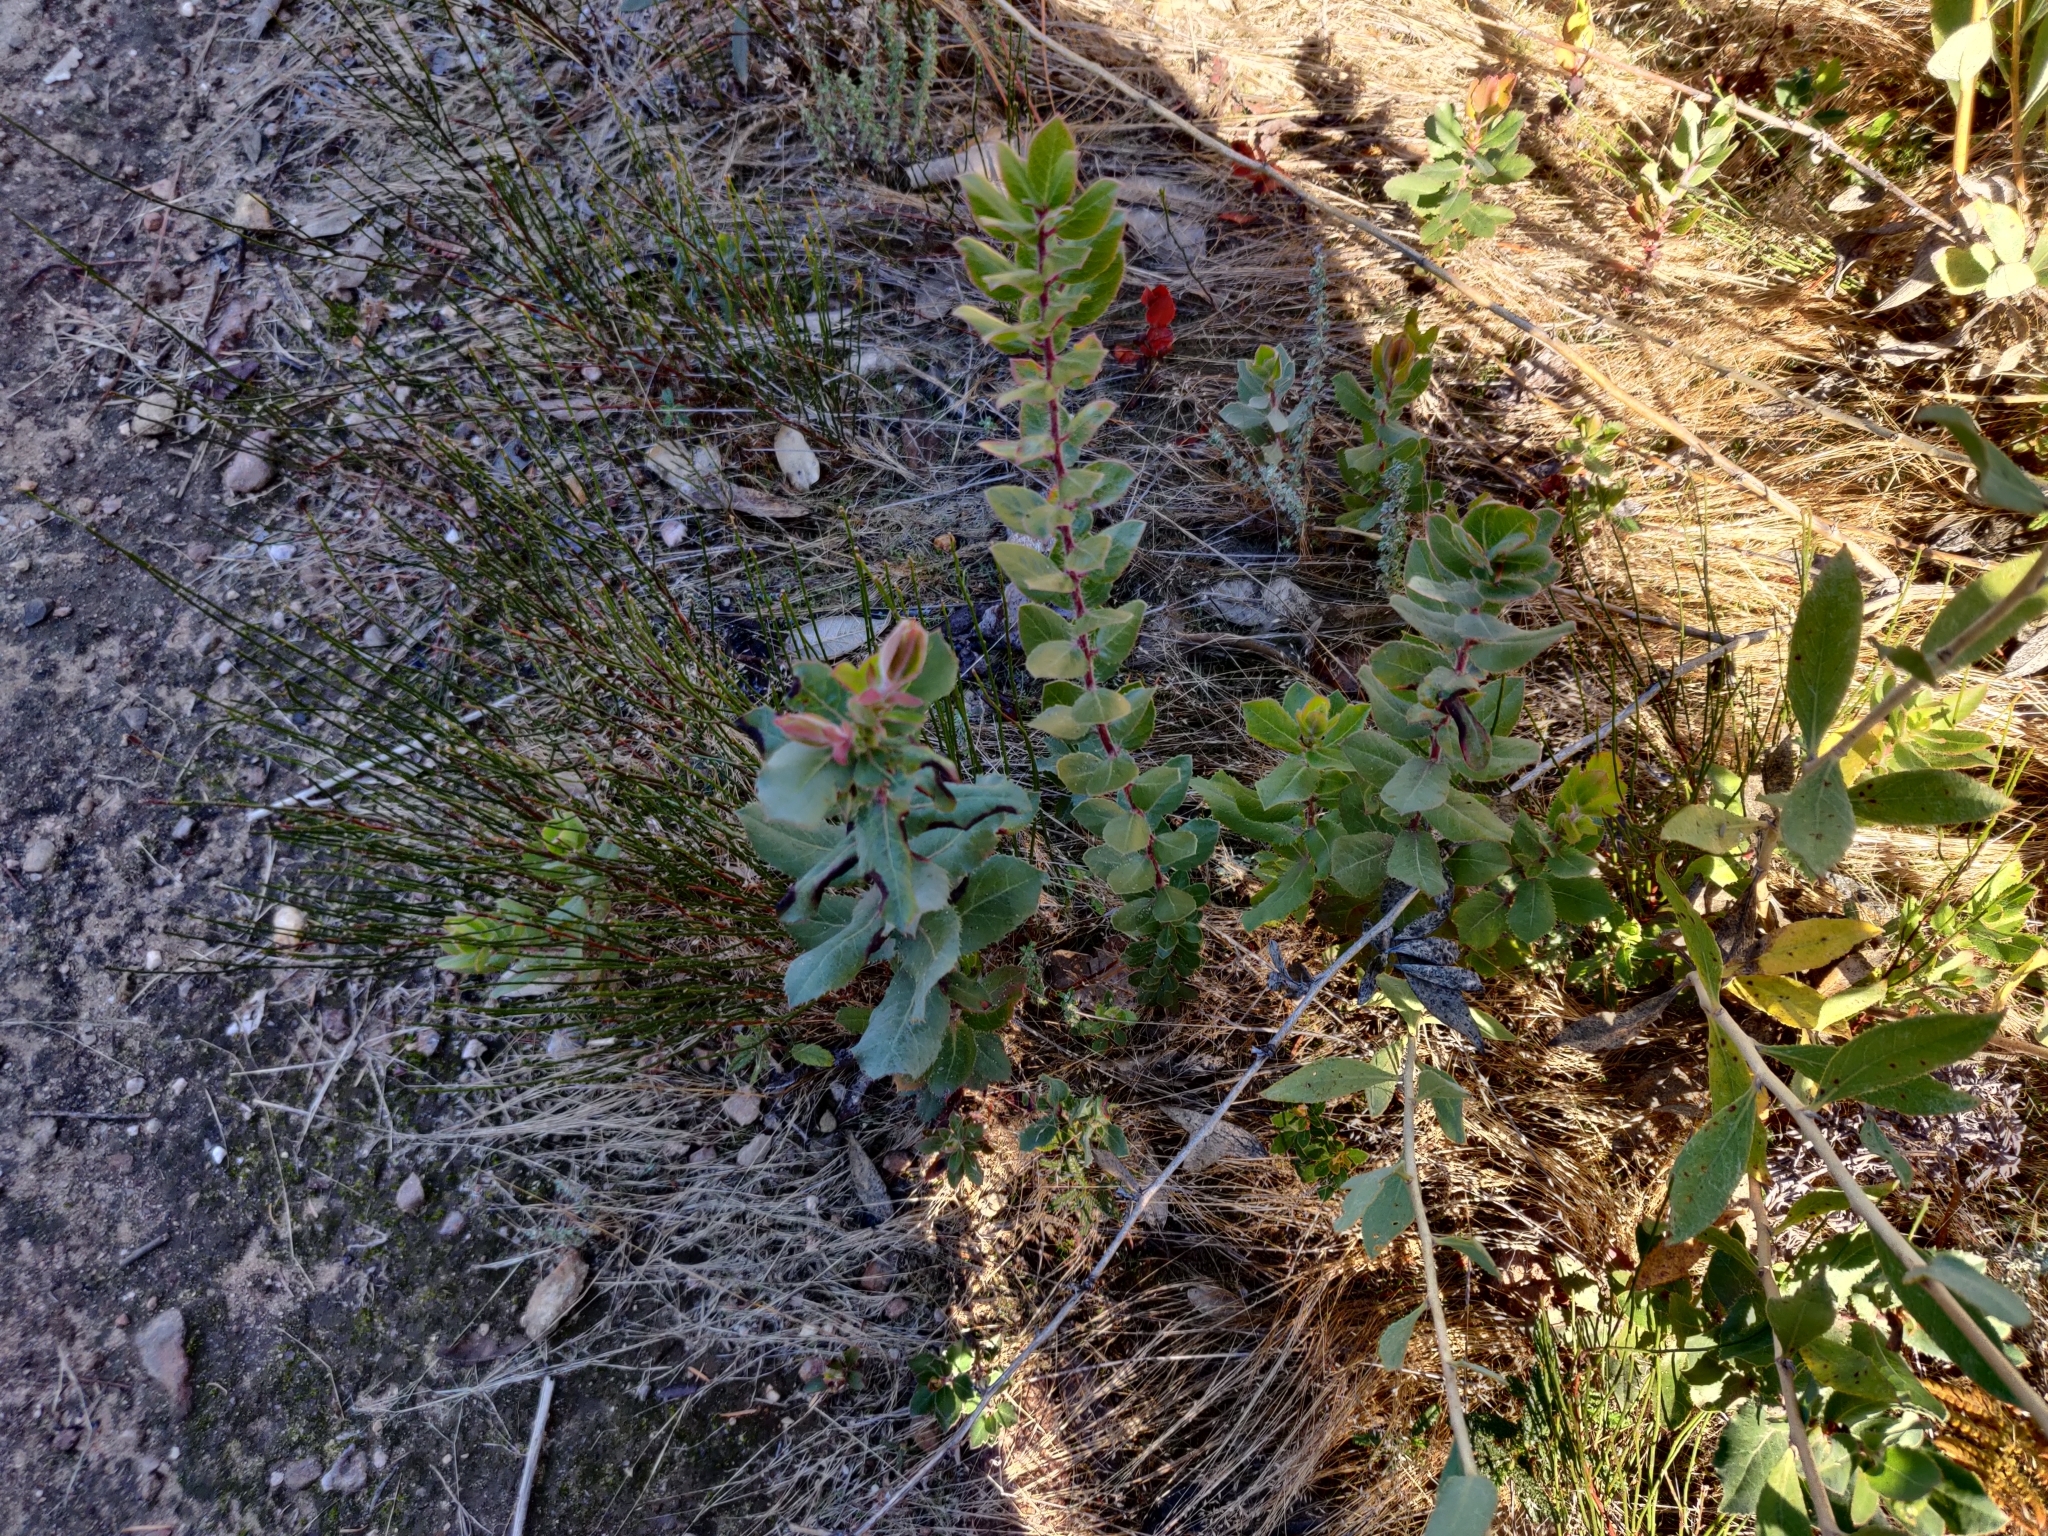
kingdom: Plantae
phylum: Tracheophyta
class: Magnoliopsida
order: Ericales
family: Ericaceae
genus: Arctostaphylos
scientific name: Arctostaphylos andersonii
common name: Santa cruz manzanita
